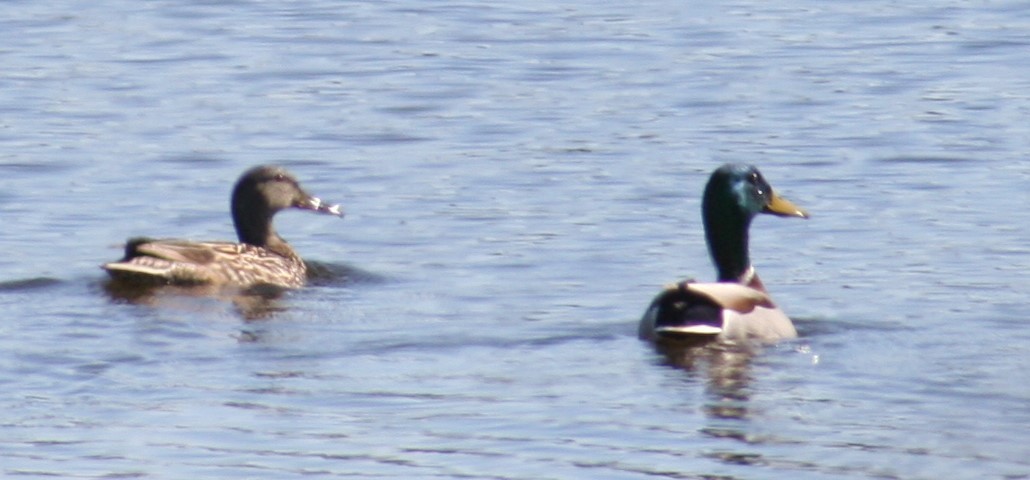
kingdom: Animalia
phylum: Chordata
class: Aves
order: Anseriformes
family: Anatidae
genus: Anas
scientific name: Anas platyrhynchos
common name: Mallard
